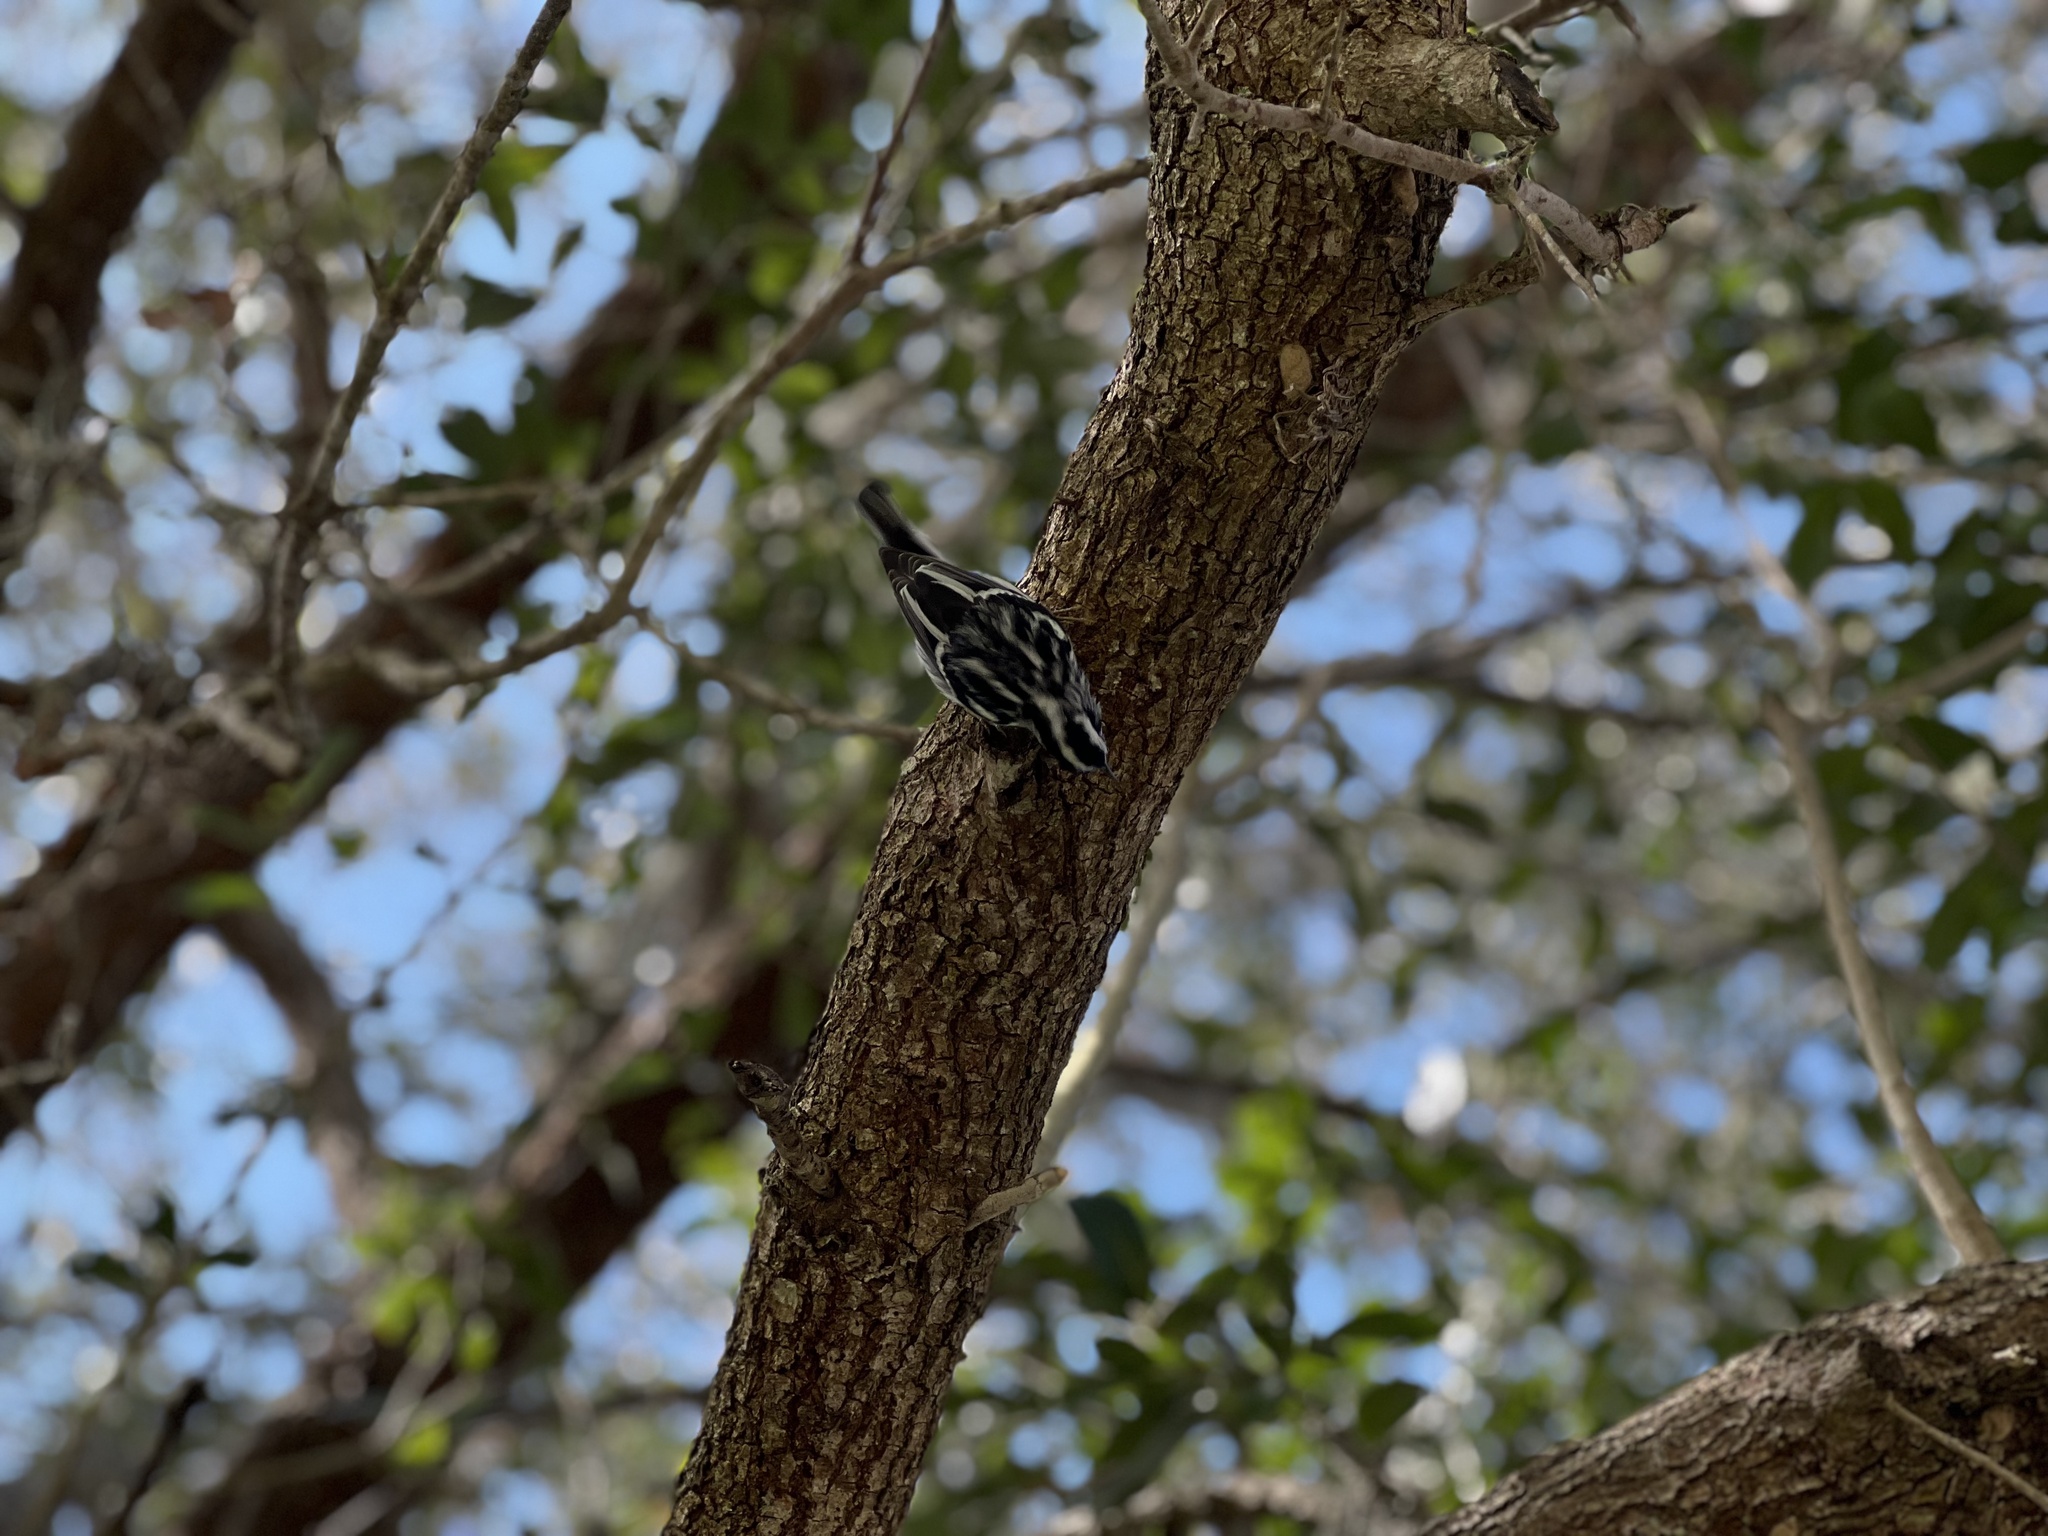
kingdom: Animalia
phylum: Chordata
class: Aves
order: Passeriformes
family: Parulidae
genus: Mniotilta
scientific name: Mniotilta varia
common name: Black-and-white warbler
